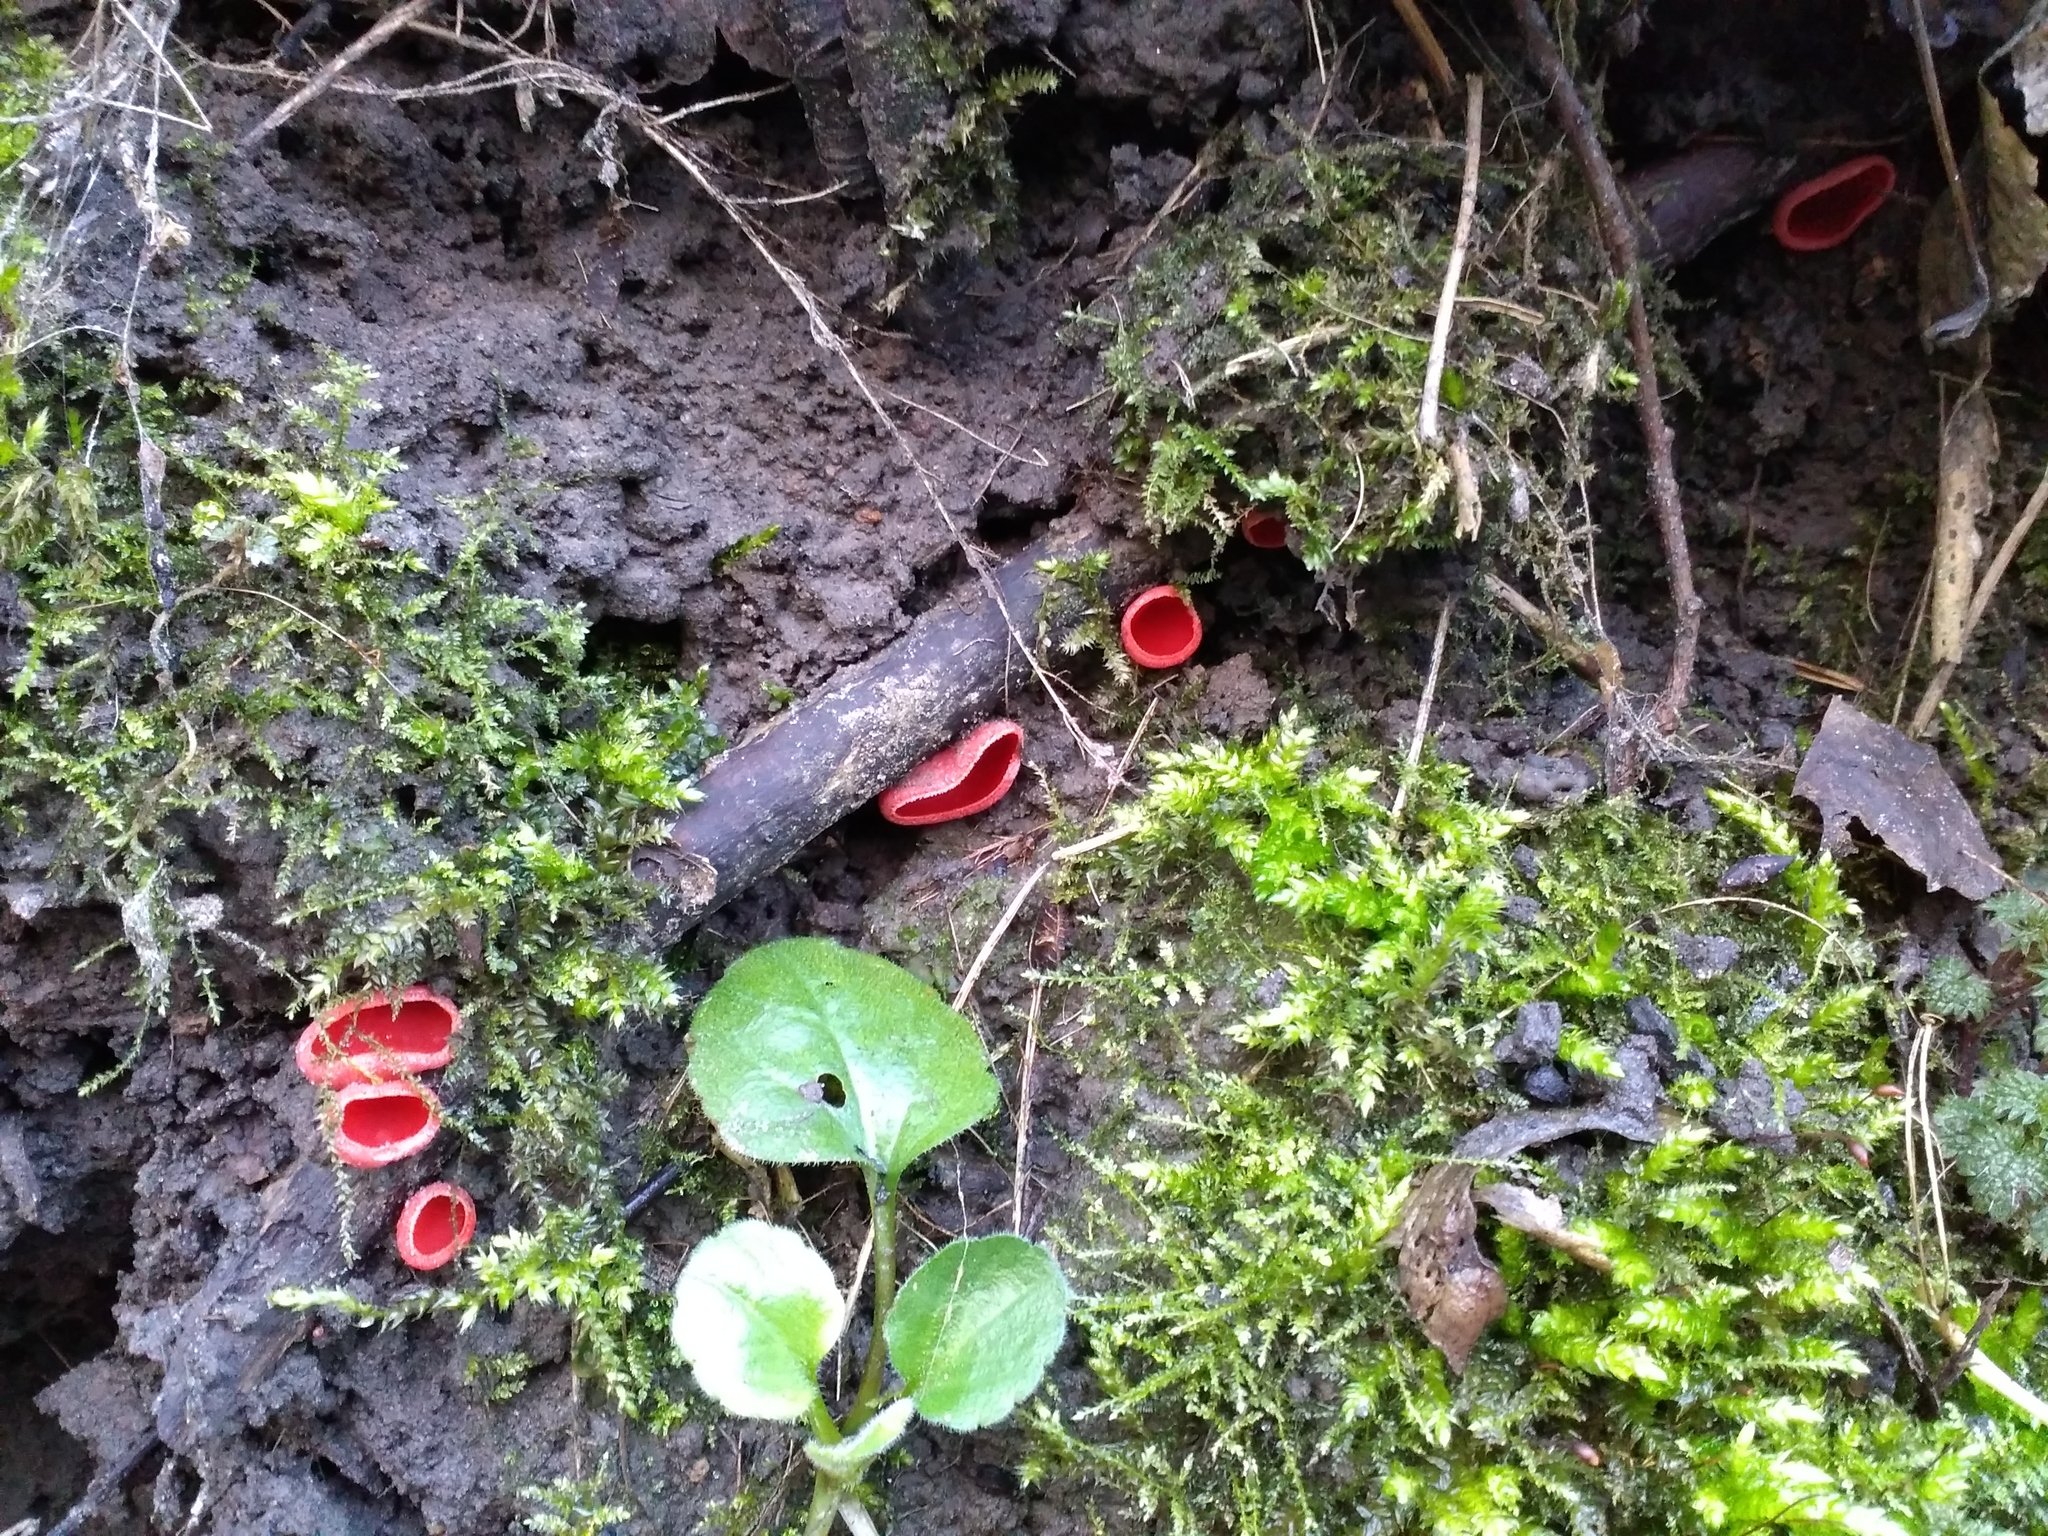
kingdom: Fungi
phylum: Ascomycota
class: Pezizomycetes
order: Pezizales
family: Sarcoscyphaceae
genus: Sarcoscypha
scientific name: Sarcoscypha
